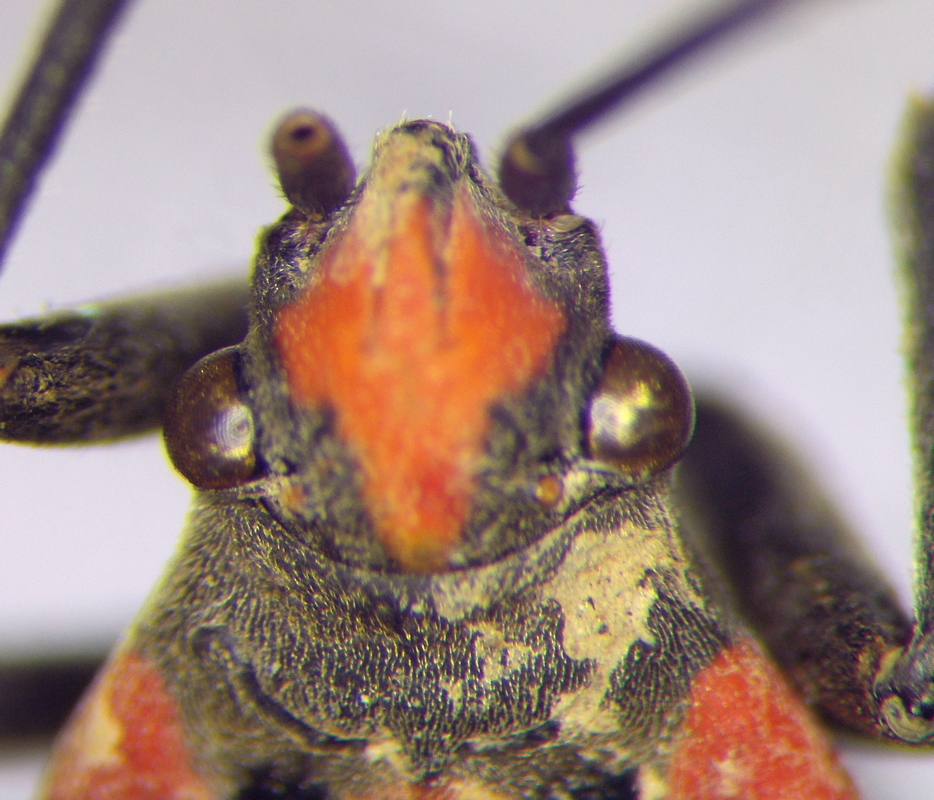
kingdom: Animalia
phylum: Arthropoda
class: Insecta
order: Hemiptera
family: Lygaeidae
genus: Lygaeus
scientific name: Lygaeus equestris
